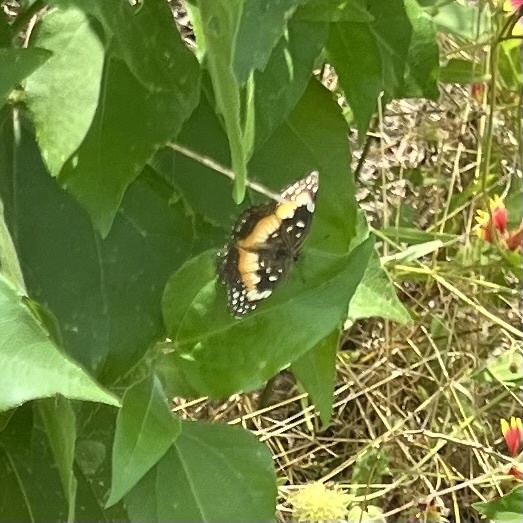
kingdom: Animalia
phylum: Arthropoda
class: Insecta
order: Lepidoptera
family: Nymphalidae
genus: Chlosyne
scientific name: Chlosyne lacinia
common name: Bordered patch
